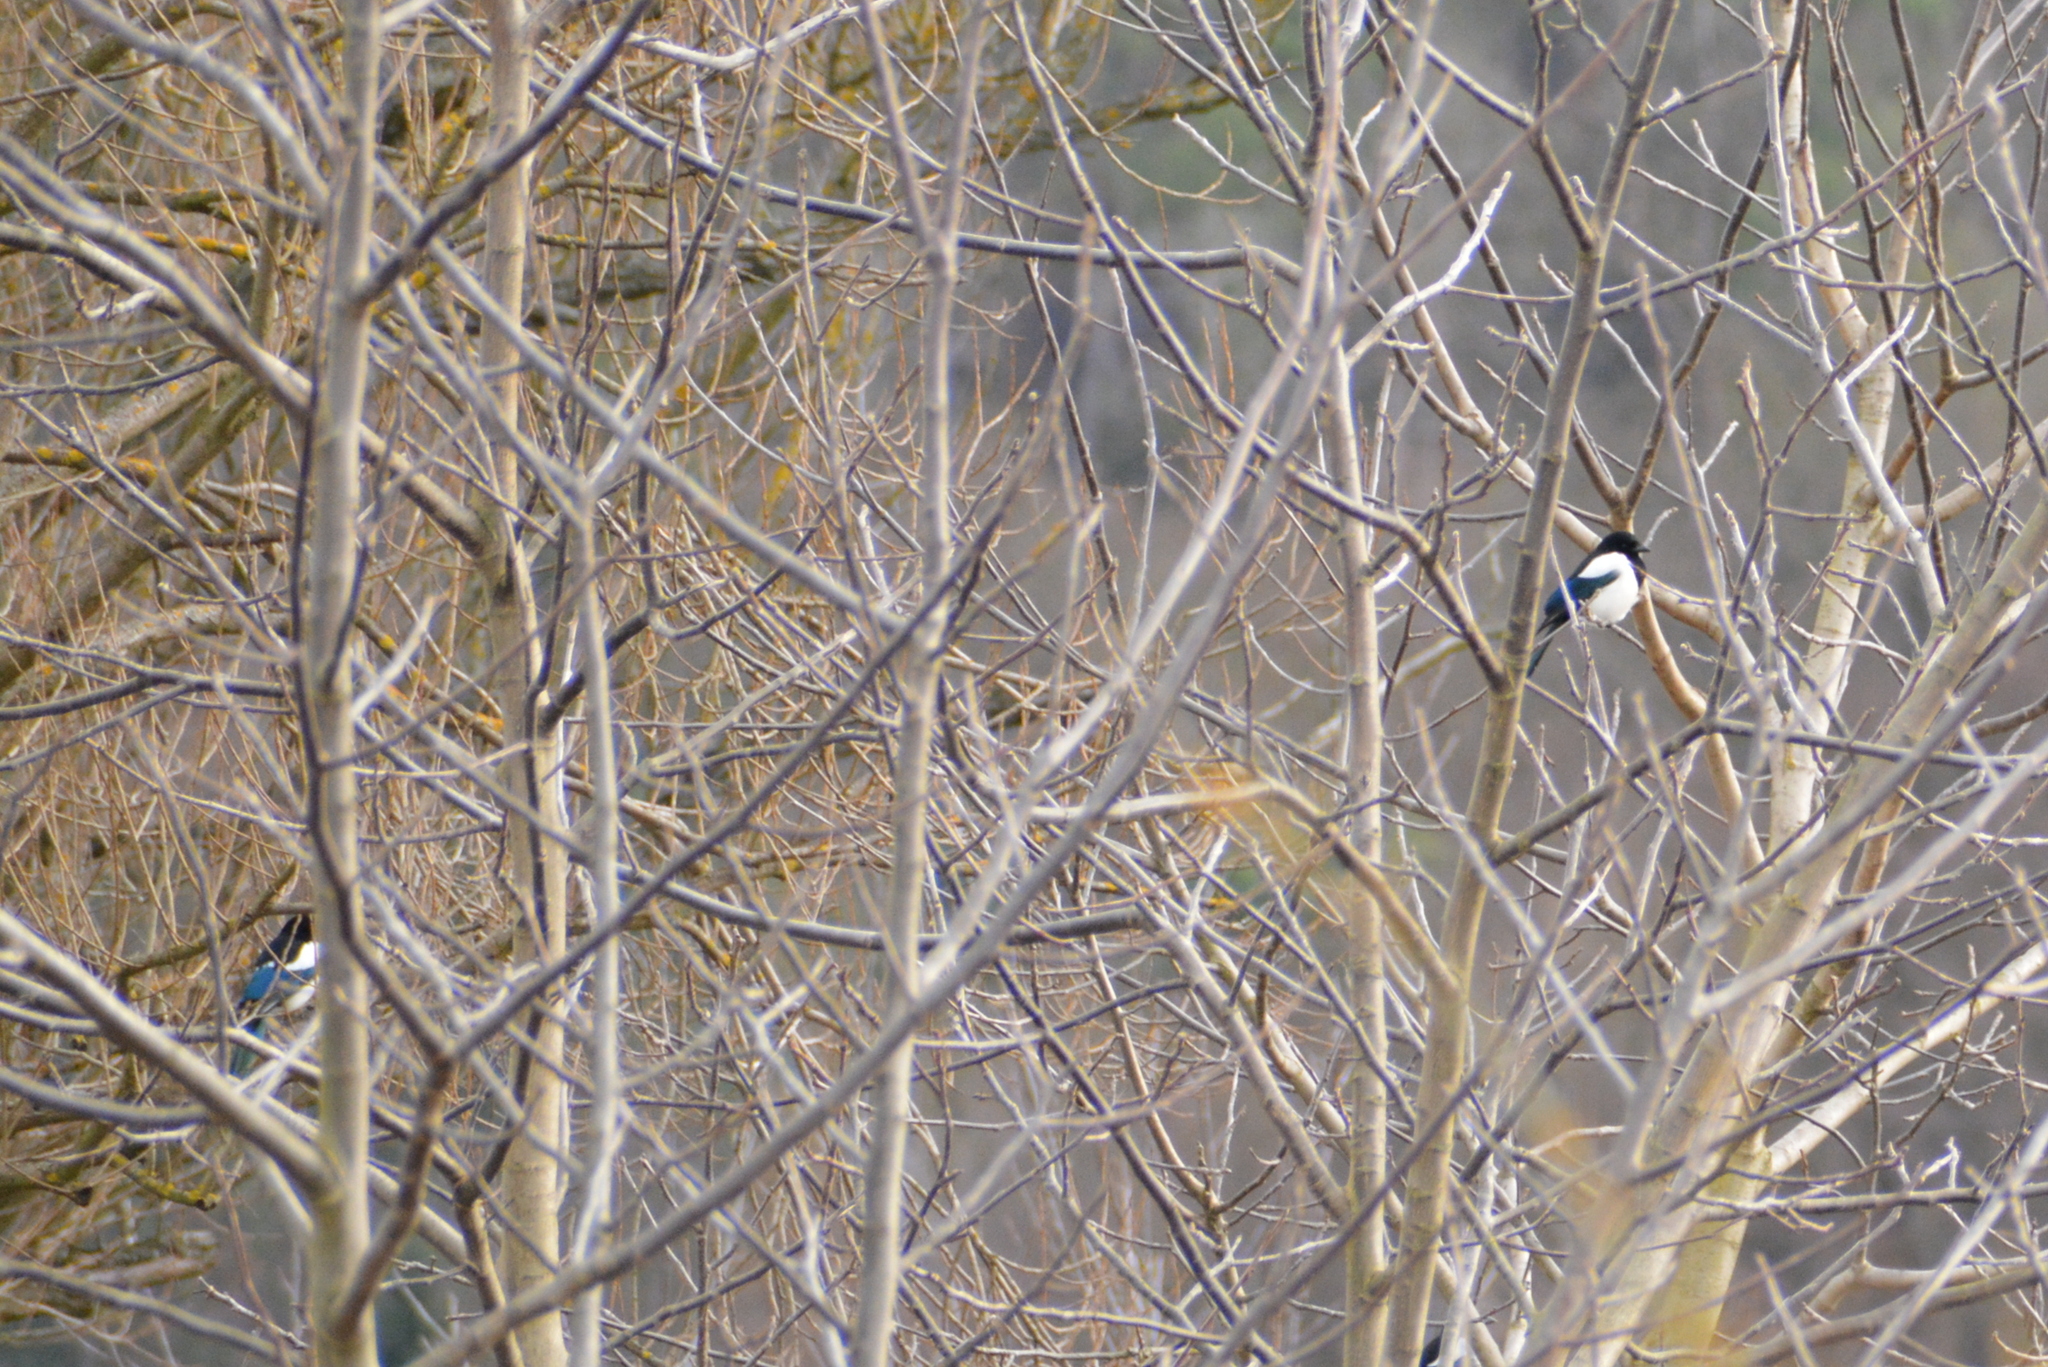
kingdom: Animalia
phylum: Chordata
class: Aves
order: Passeriformes
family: Corvidae
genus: Pica
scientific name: Pica pica
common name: Eurasian magpie
